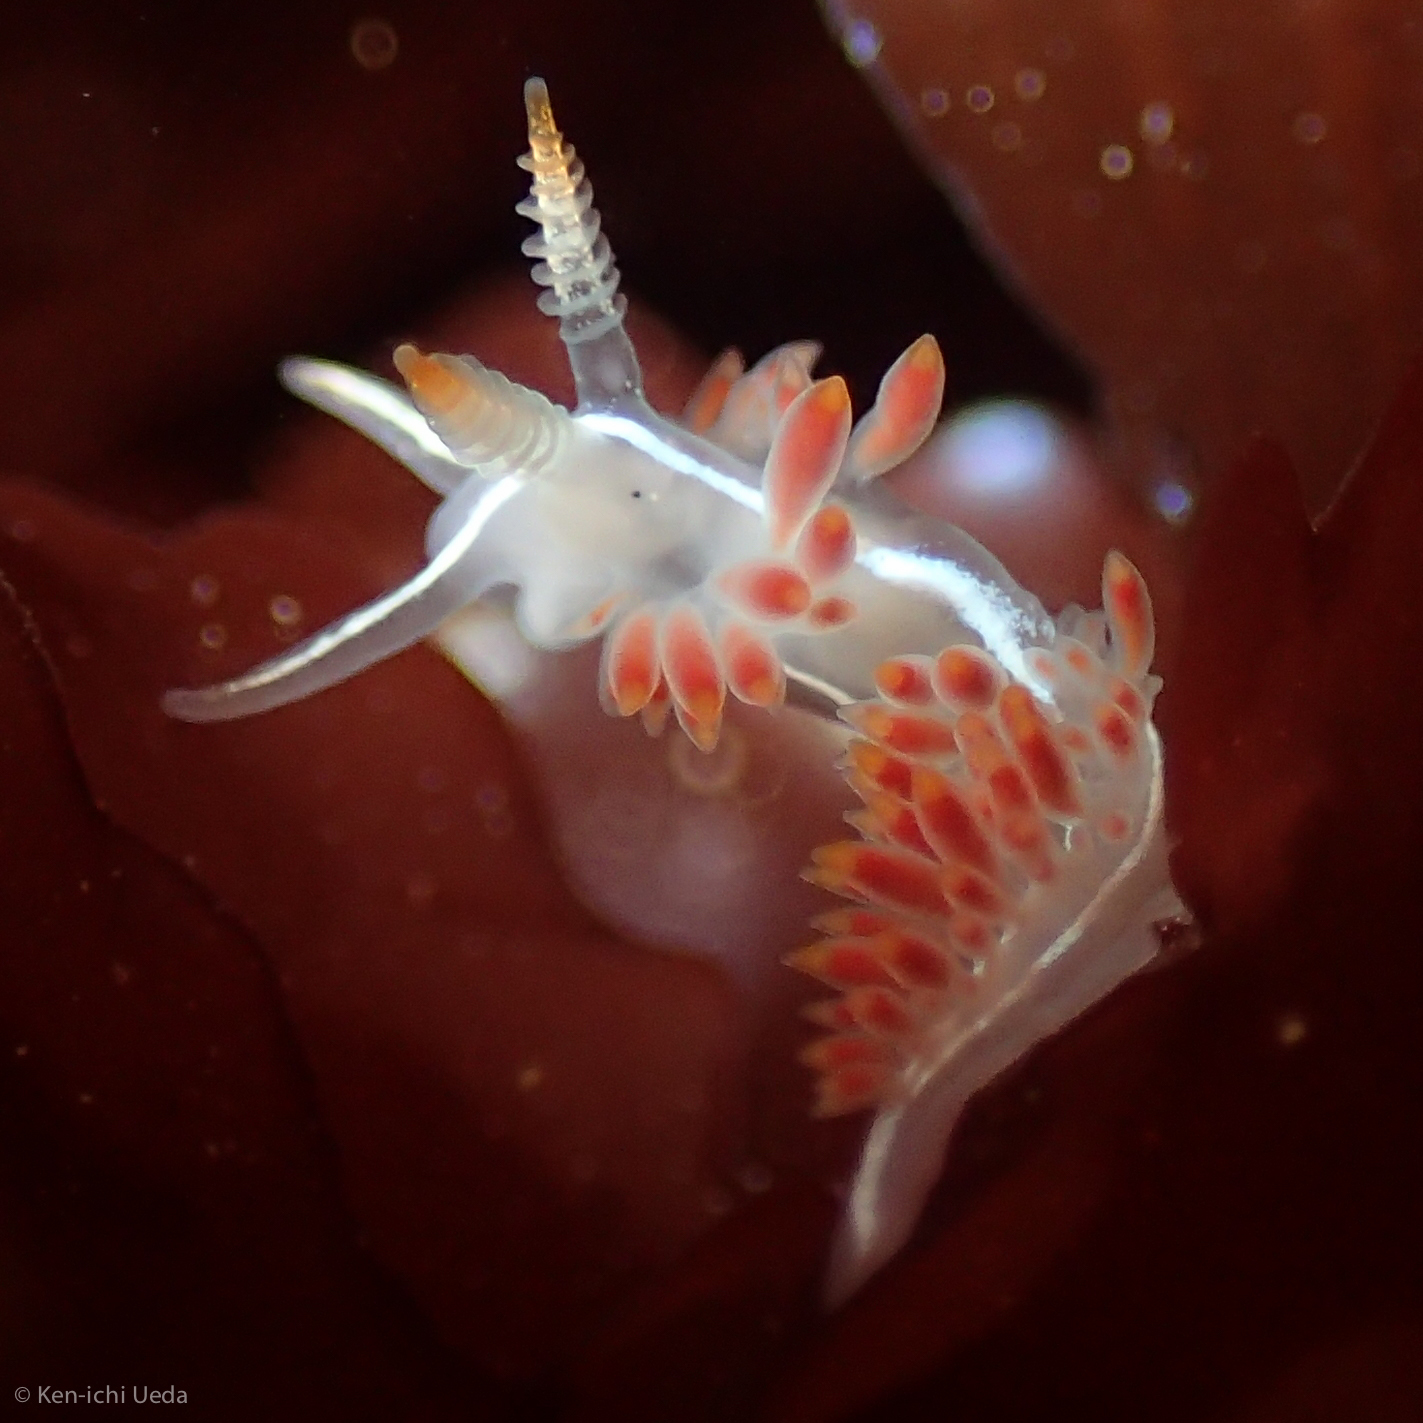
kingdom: Animalia
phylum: Mollusca
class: Gastropoda
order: Nudibranchia
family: Coryphellidae
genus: Coryphella
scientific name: Coryphella trilineata
